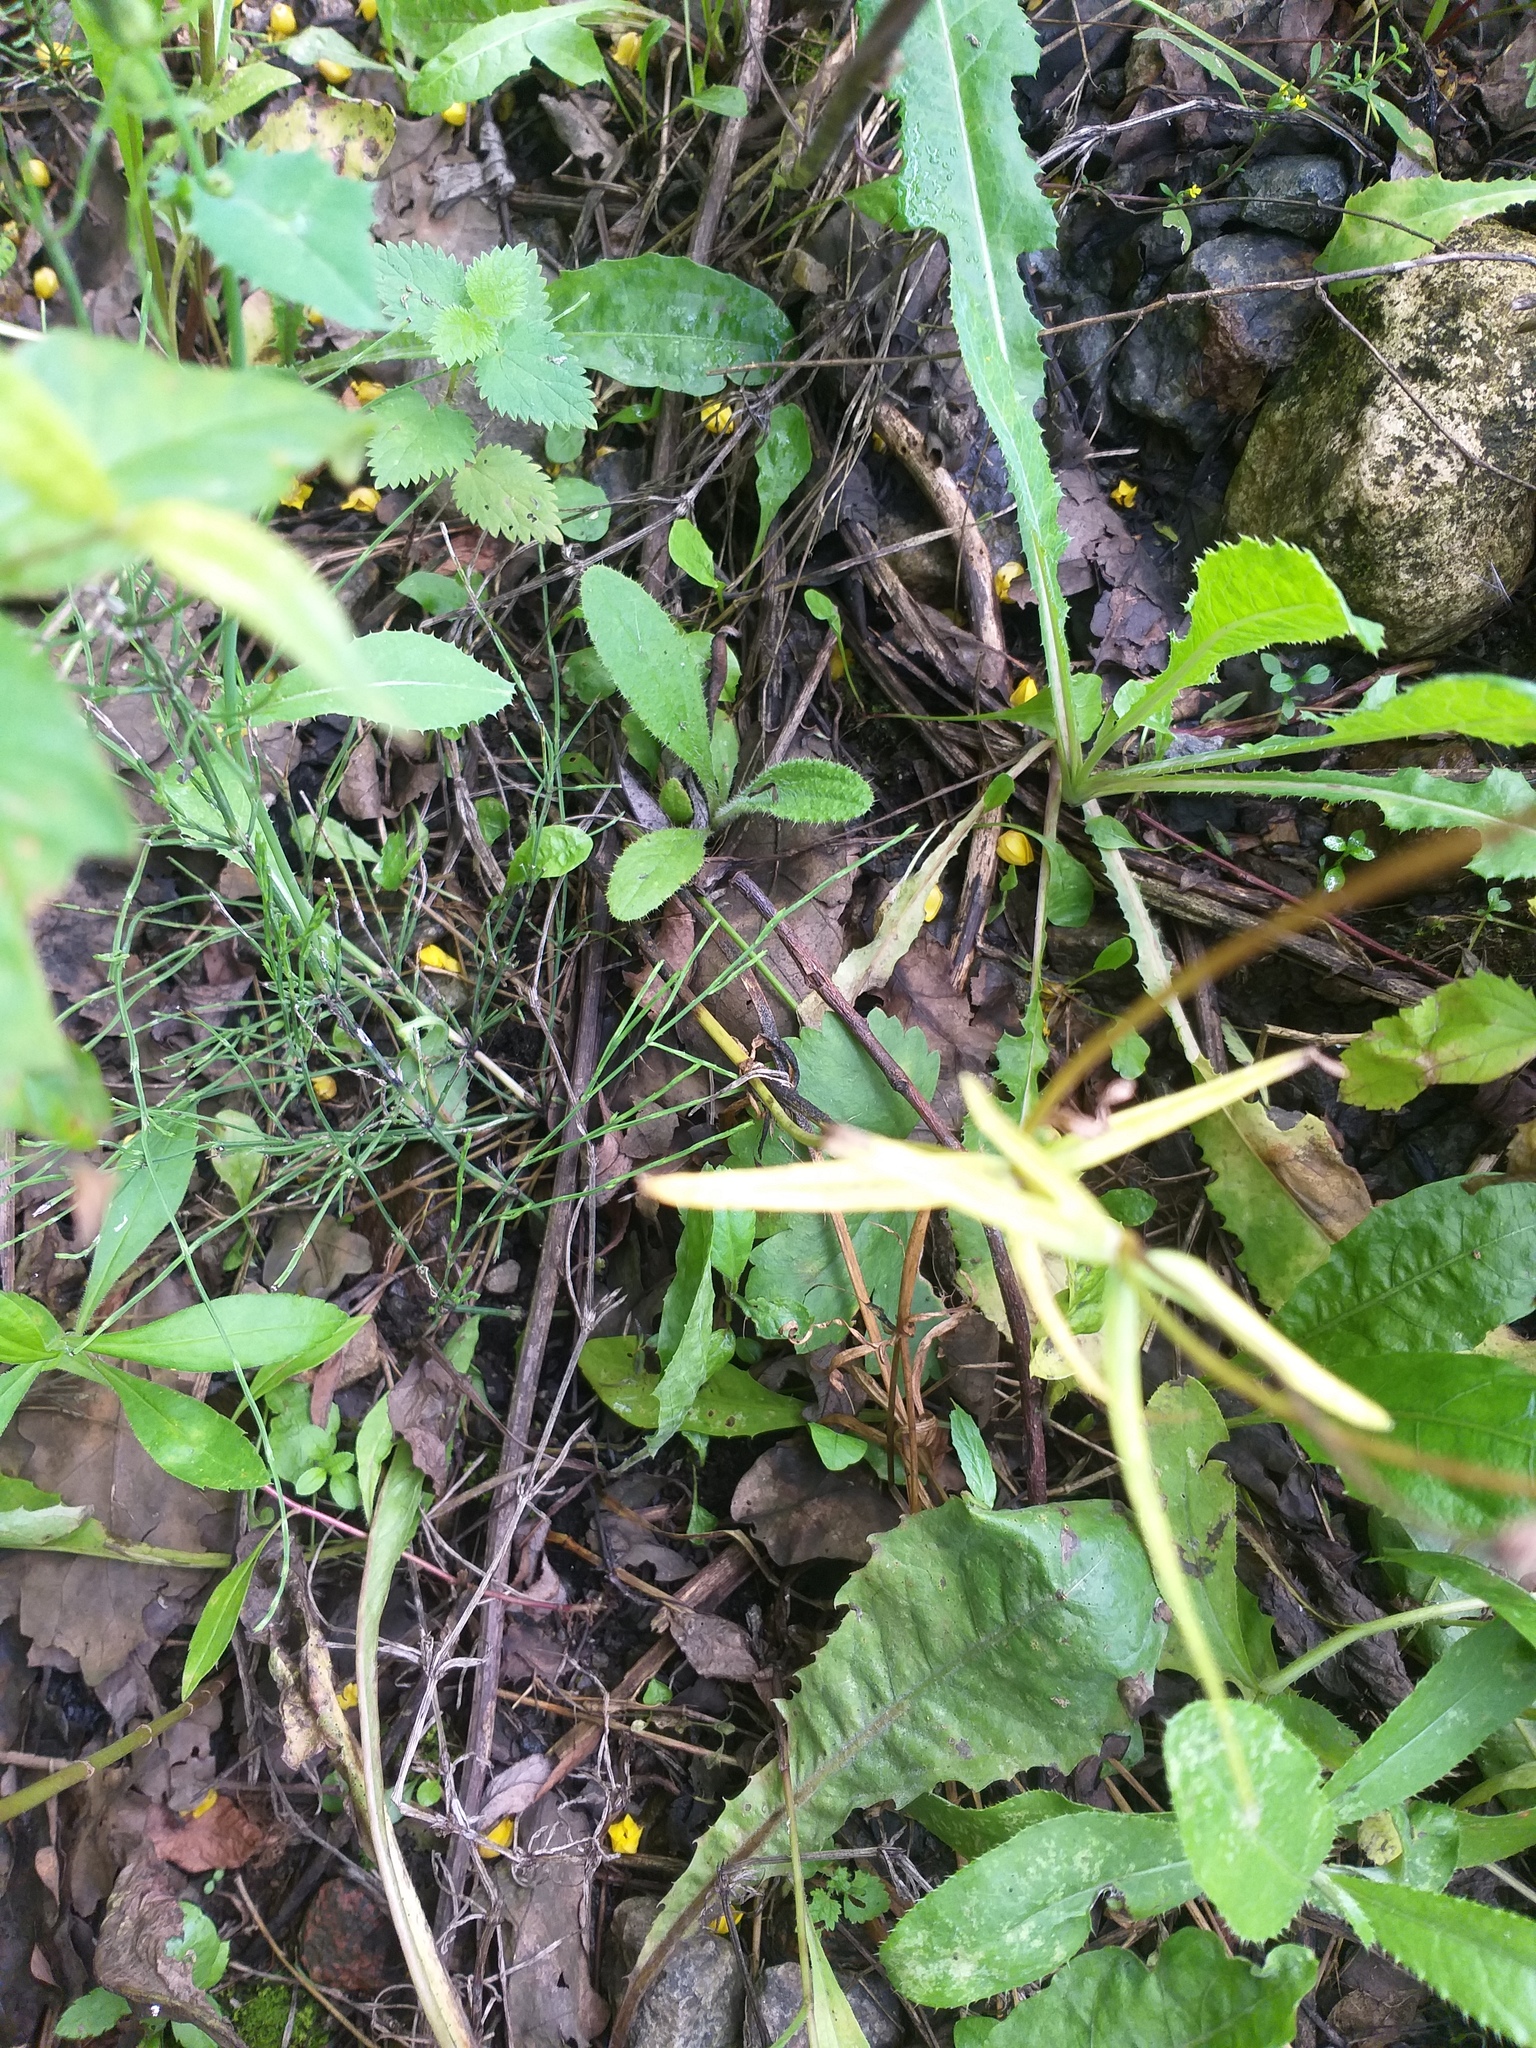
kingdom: Plantae
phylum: Tracheophyta
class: Magnoliopsida
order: Ranunculales
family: Ranunculaceae
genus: Ranunculus
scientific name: Ranunculus auricomus
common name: Goldilocks buttercup
